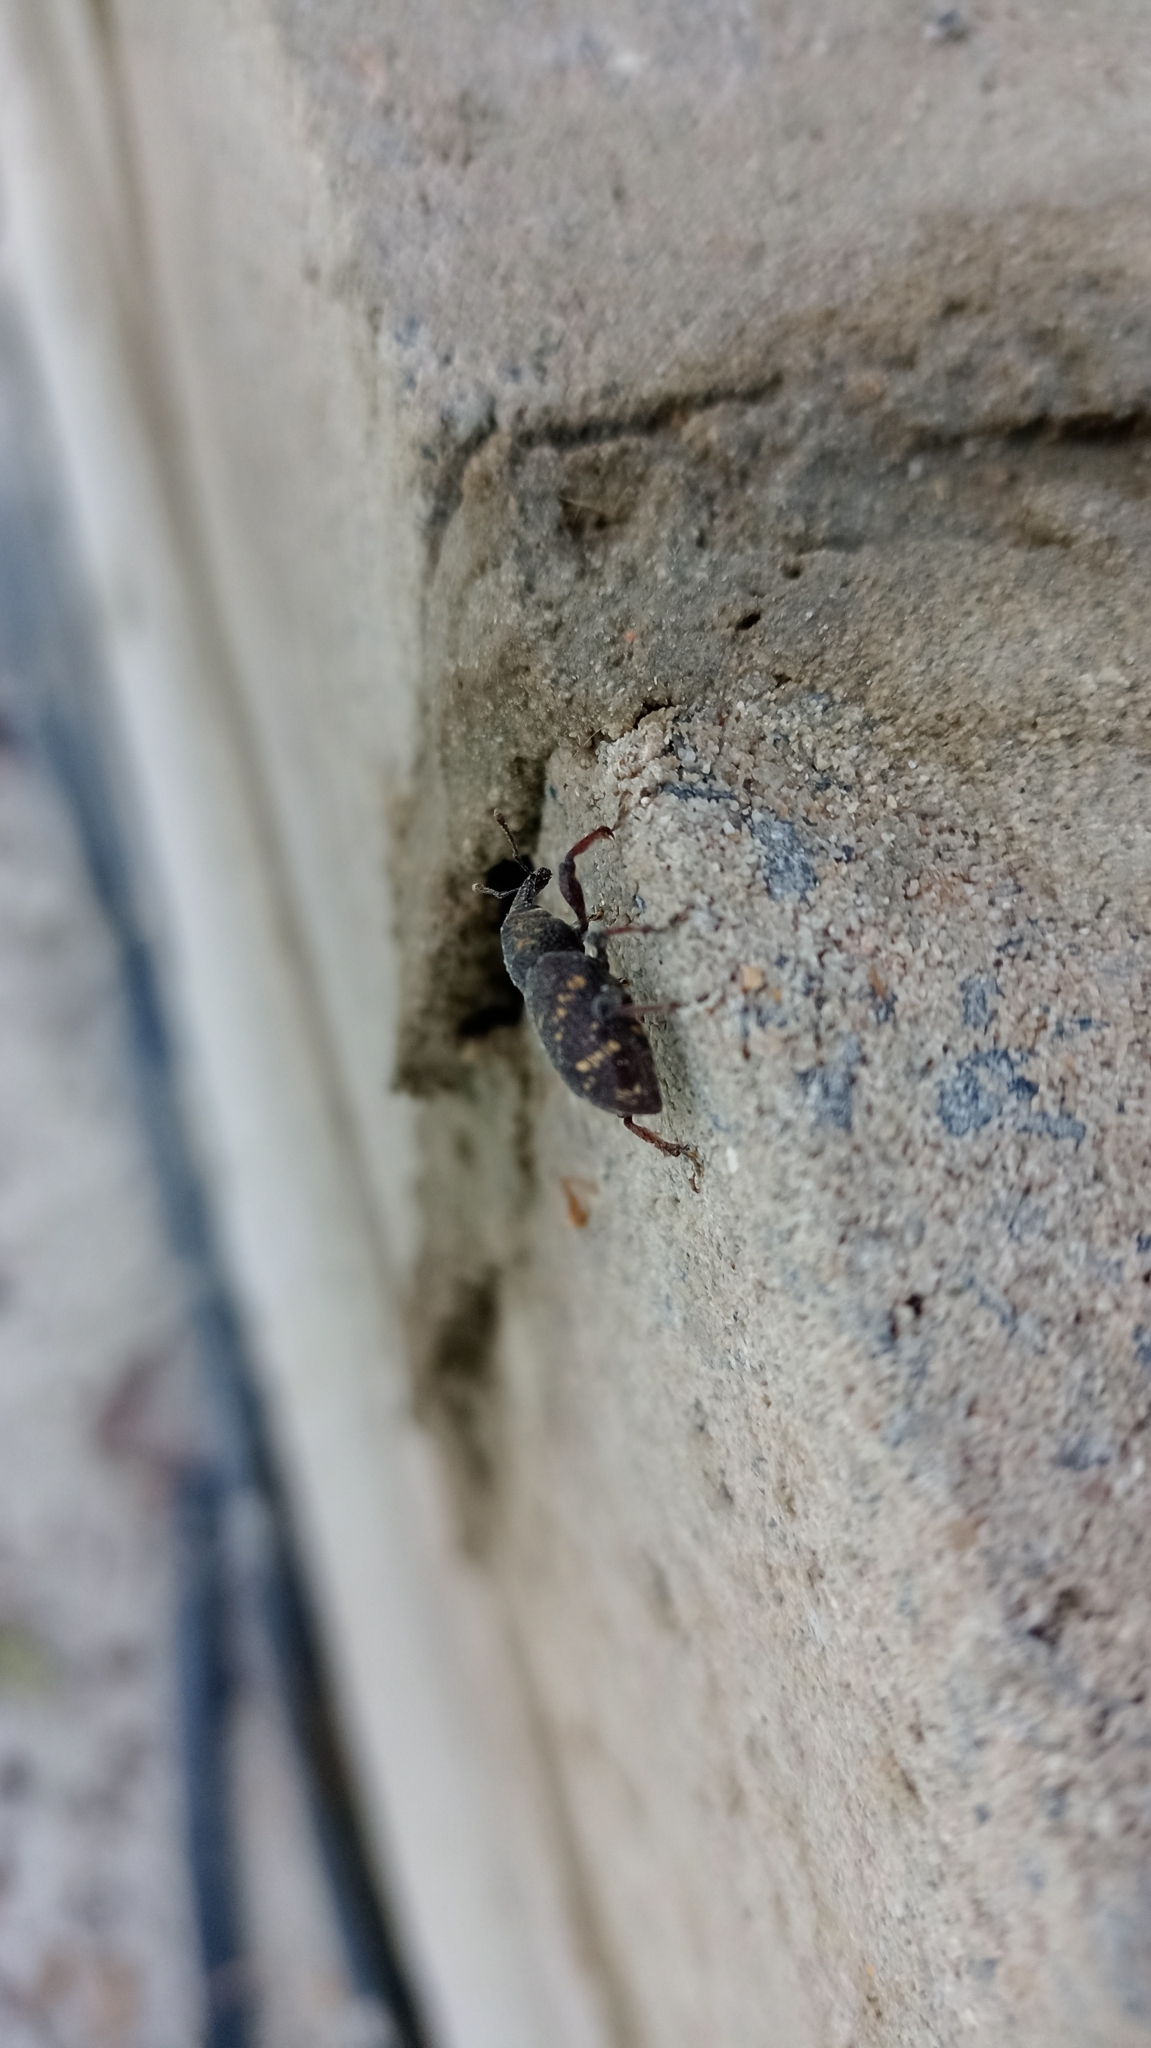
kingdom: Animalia
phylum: Arthropoda
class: Insecta
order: Coleoptera
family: Curculionidae
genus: Hylobius
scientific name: Hylobius abietis
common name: Large pine weevil
